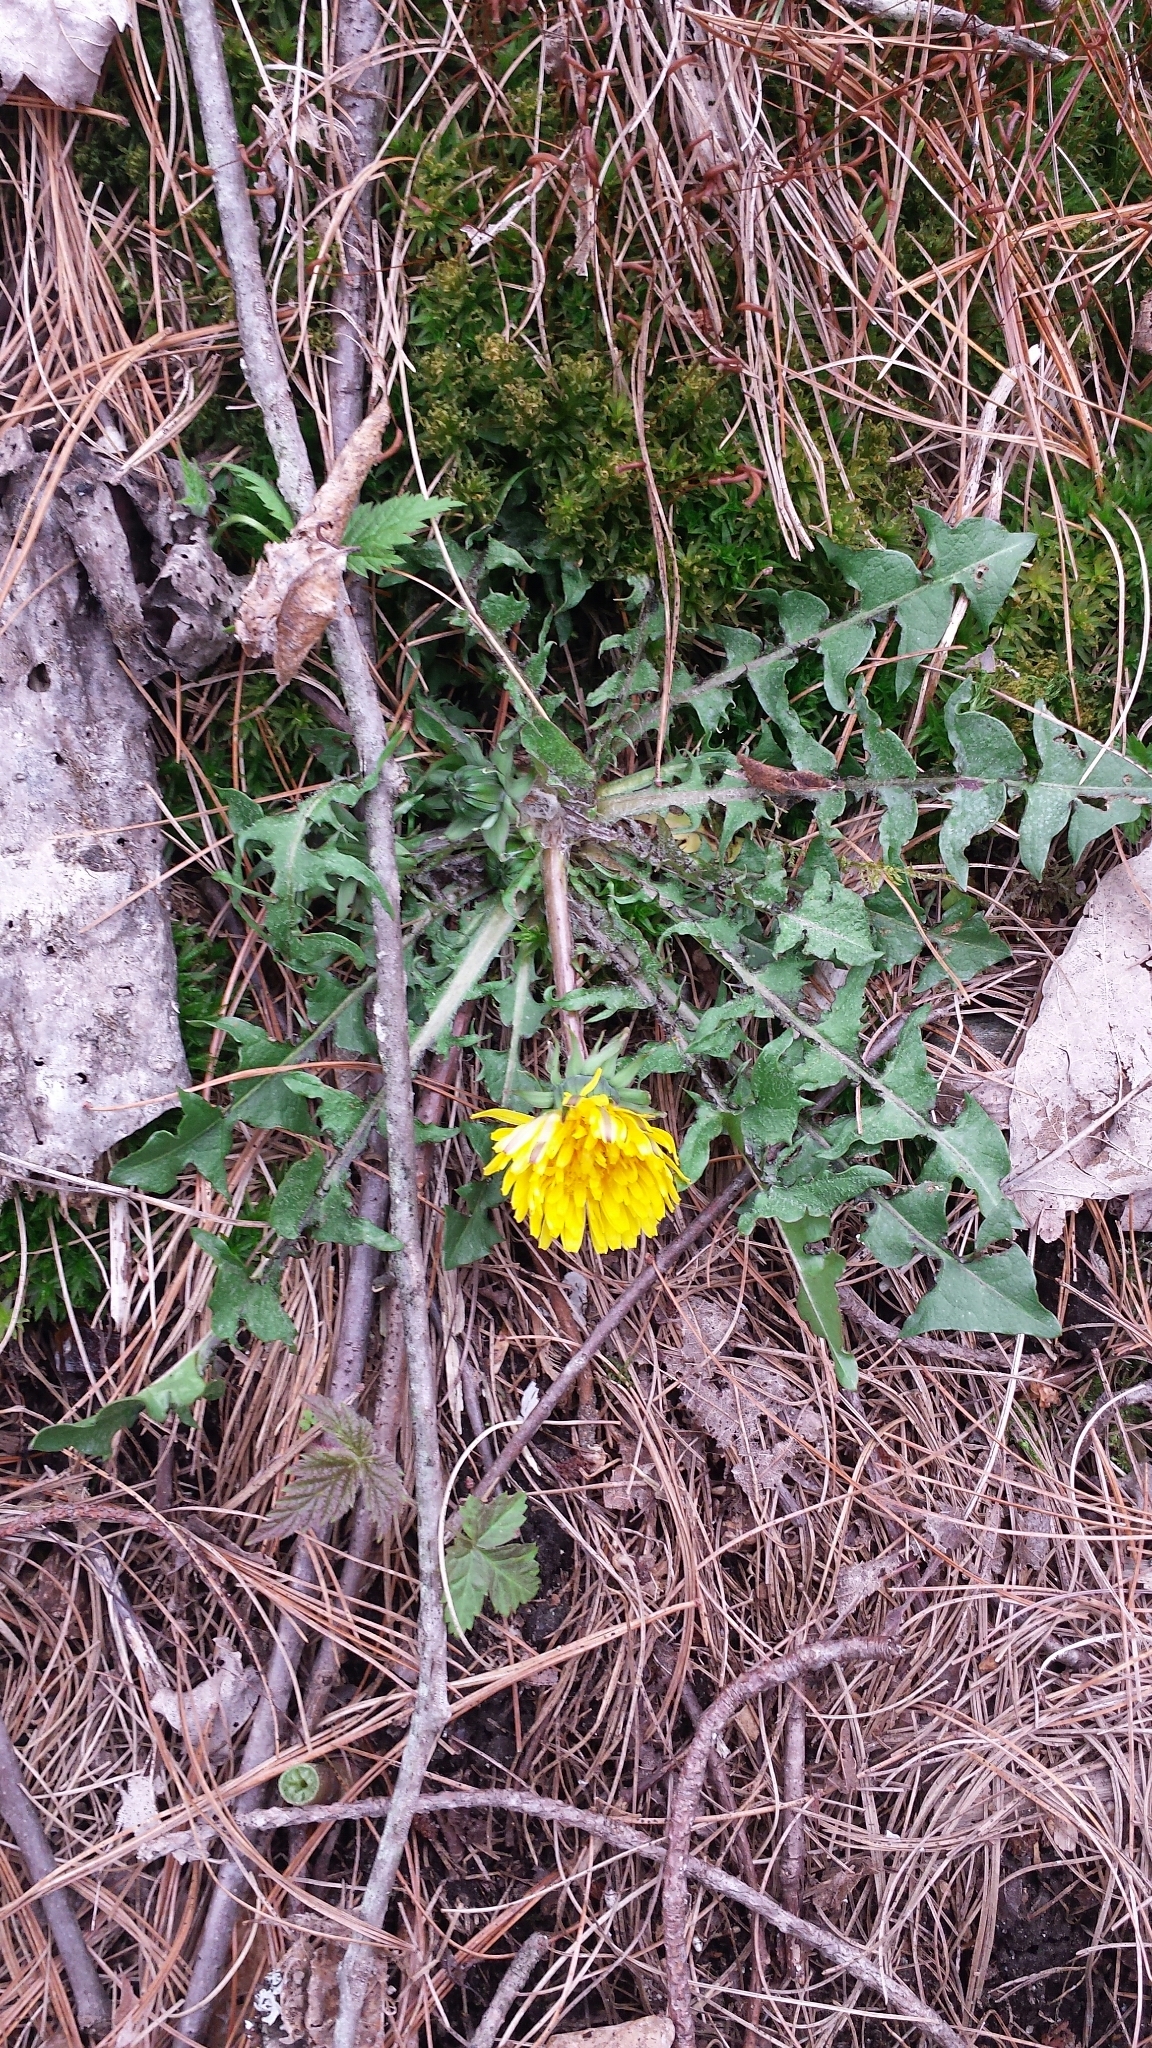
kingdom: Plantae
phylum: Tracheophyta
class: Magnoliopsida
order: Asterales
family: Asteraceae
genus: Taraxacum
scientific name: Taraxacum officinale
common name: Common dandelion
